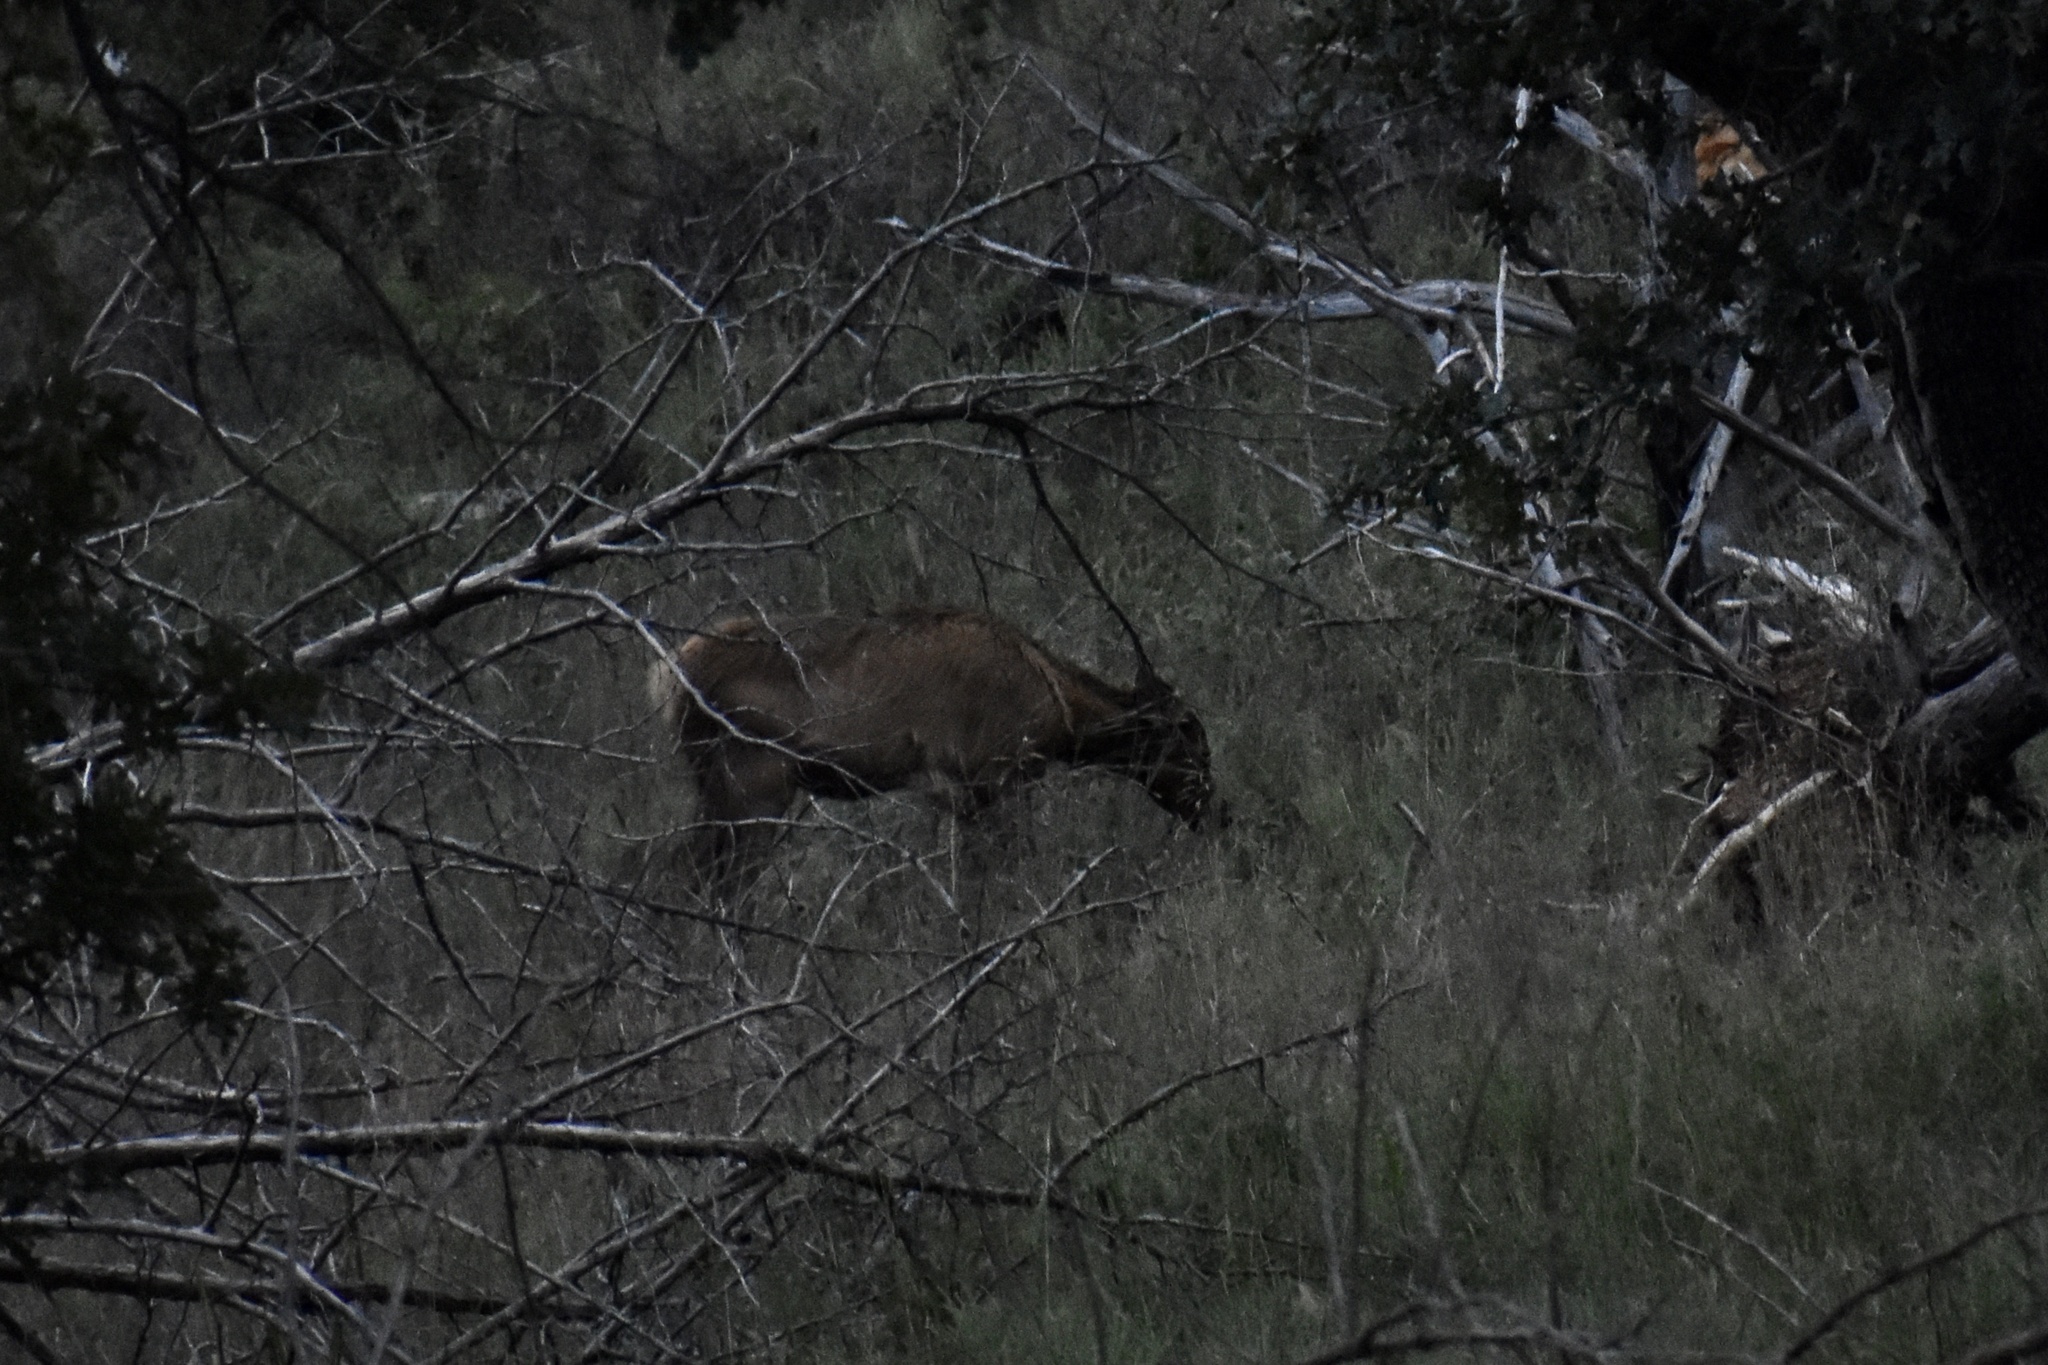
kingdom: Animalia
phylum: Chordata
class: Mammalia
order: Artiodactyla
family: Cervidae
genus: Cervus
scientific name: Cervus elaphus
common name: Red deer
